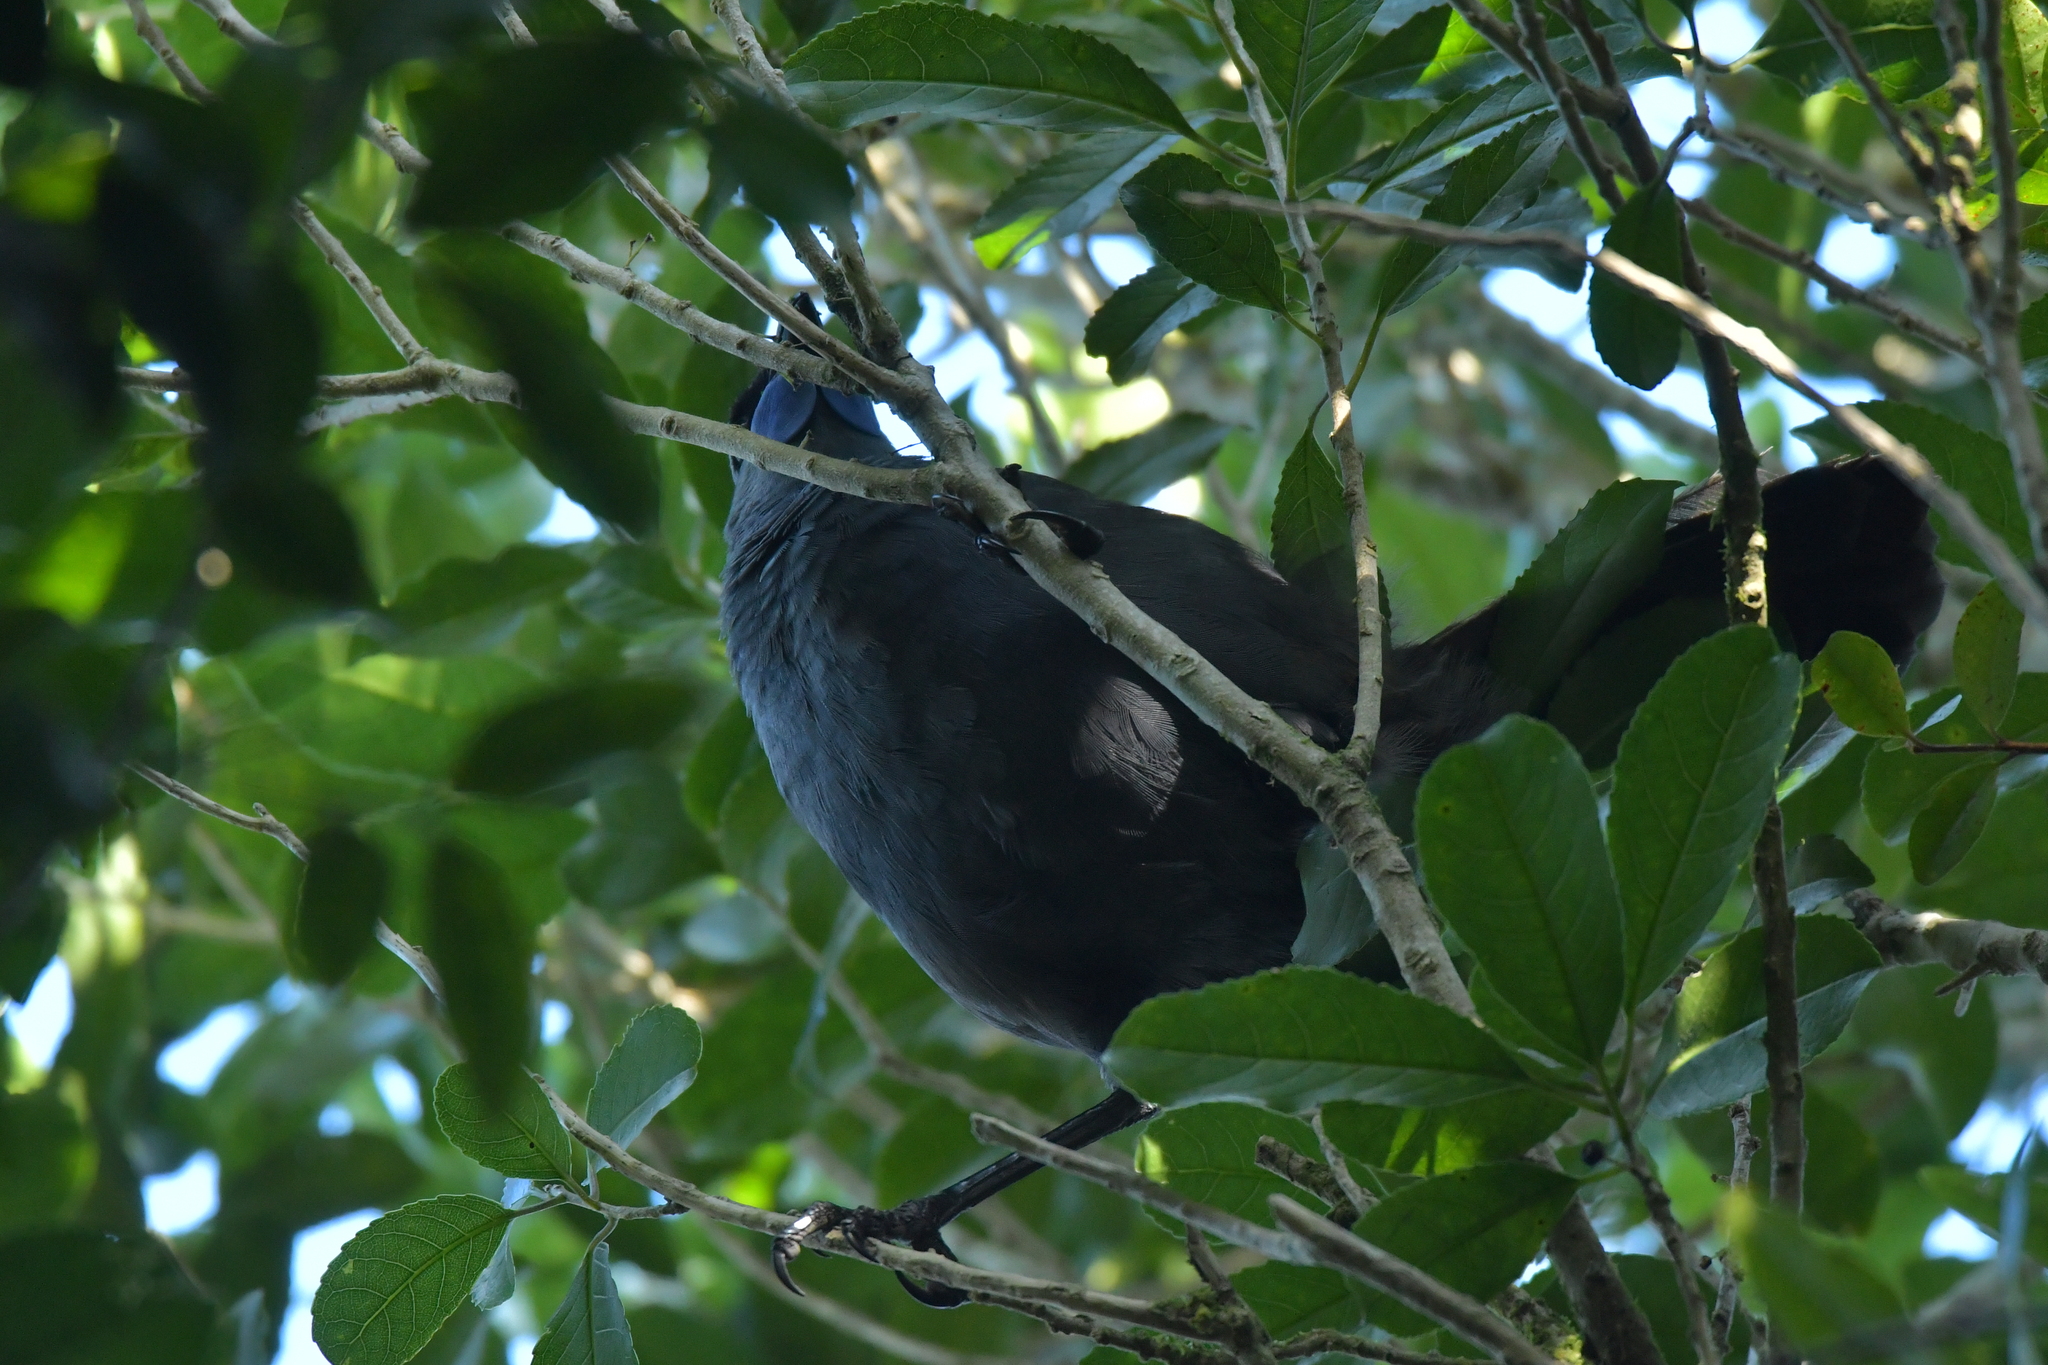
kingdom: Animalia
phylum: Chordata
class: Aves
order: Passeriformes
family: Callaeatidae
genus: Callaeas
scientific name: Callaeas cinereus
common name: South island kokako
